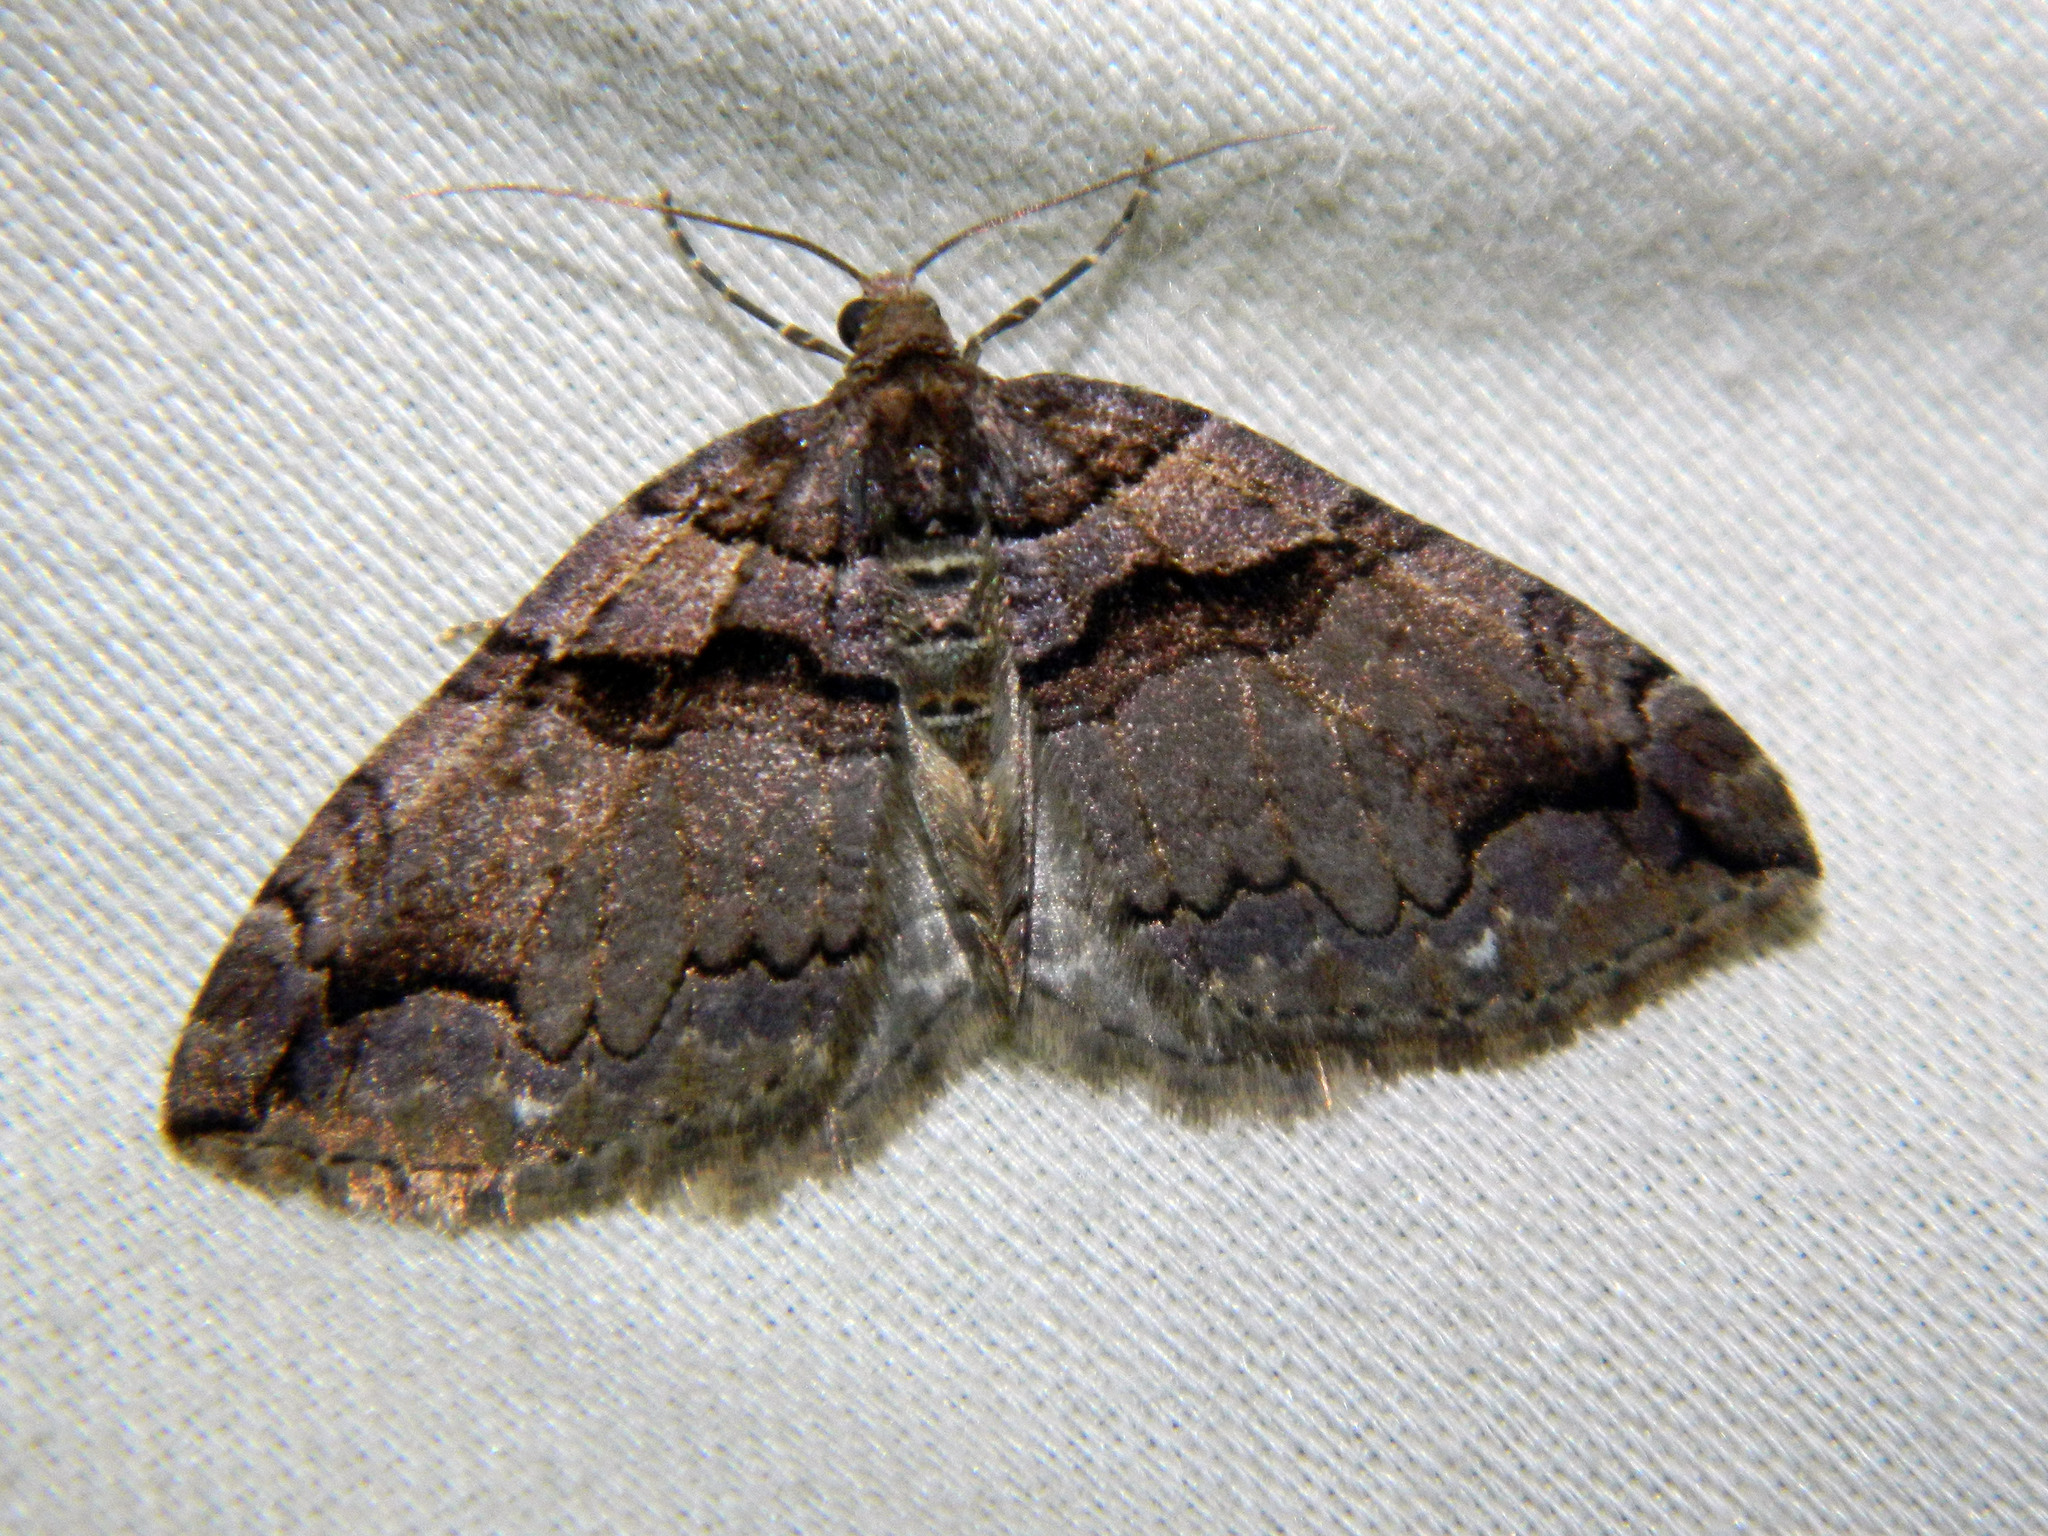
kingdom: Animalia
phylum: Arthropoda
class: Insecta
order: Lepidoptera
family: Geometridae
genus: Anticlea
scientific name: Anticlea vasiliata
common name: Variable carpet
